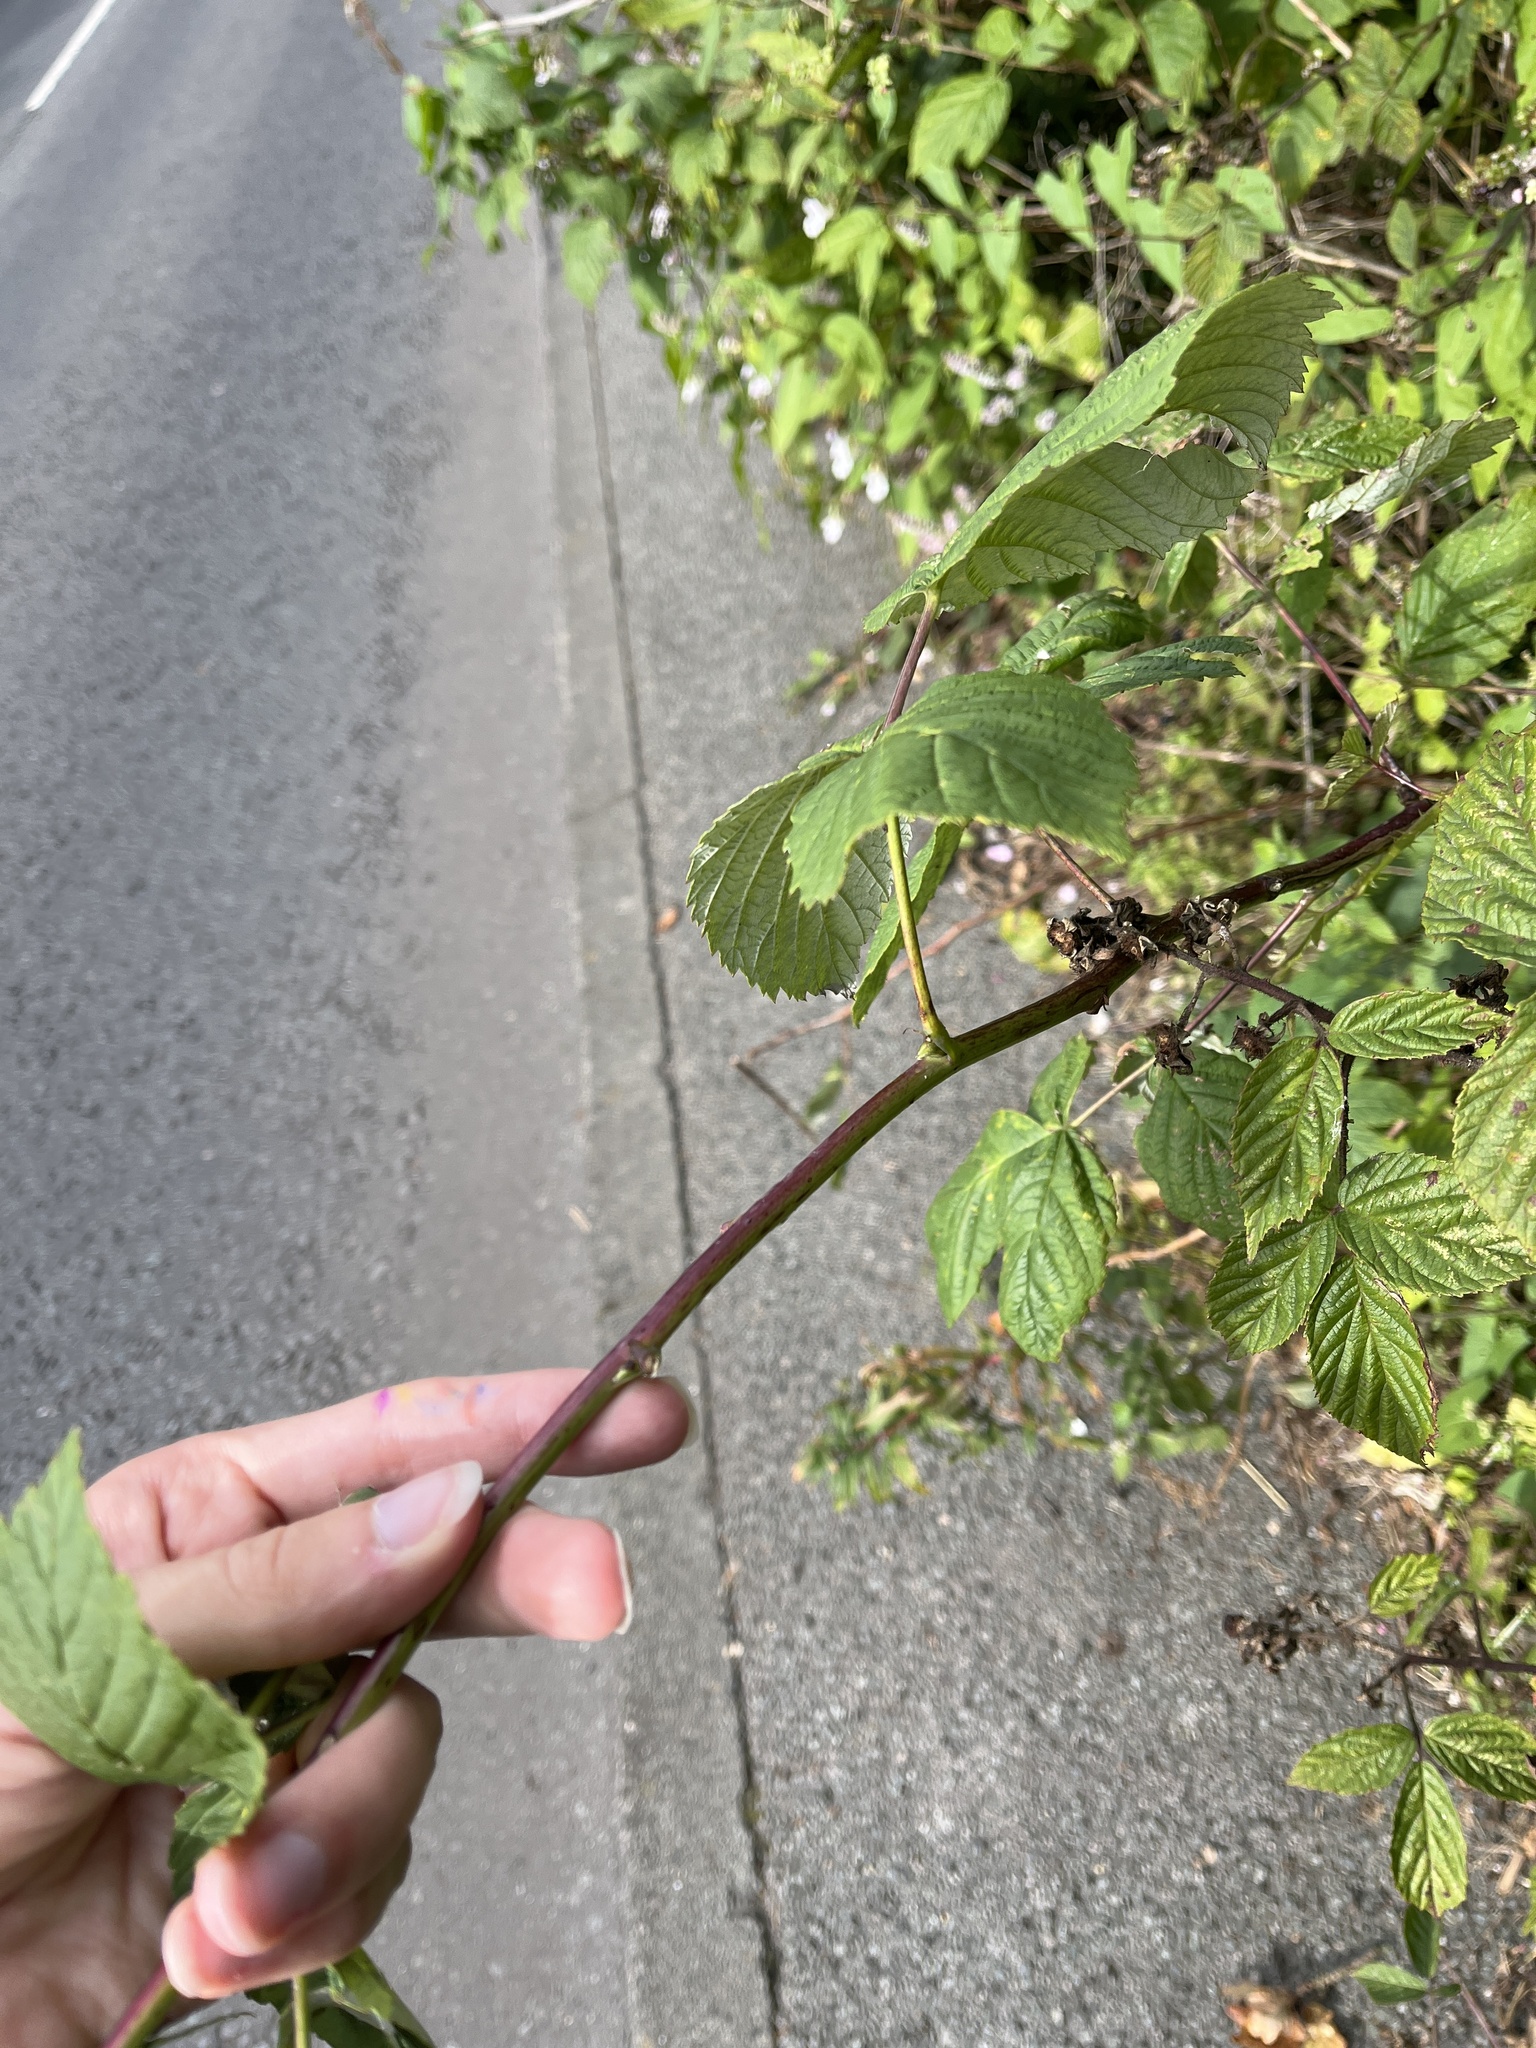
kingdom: Plantae
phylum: Tracheophyta
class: Magnoliopsida
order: Rosales
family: Rosaceae
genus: Rubus
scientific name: Rubus idaeus
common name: Raspberry
